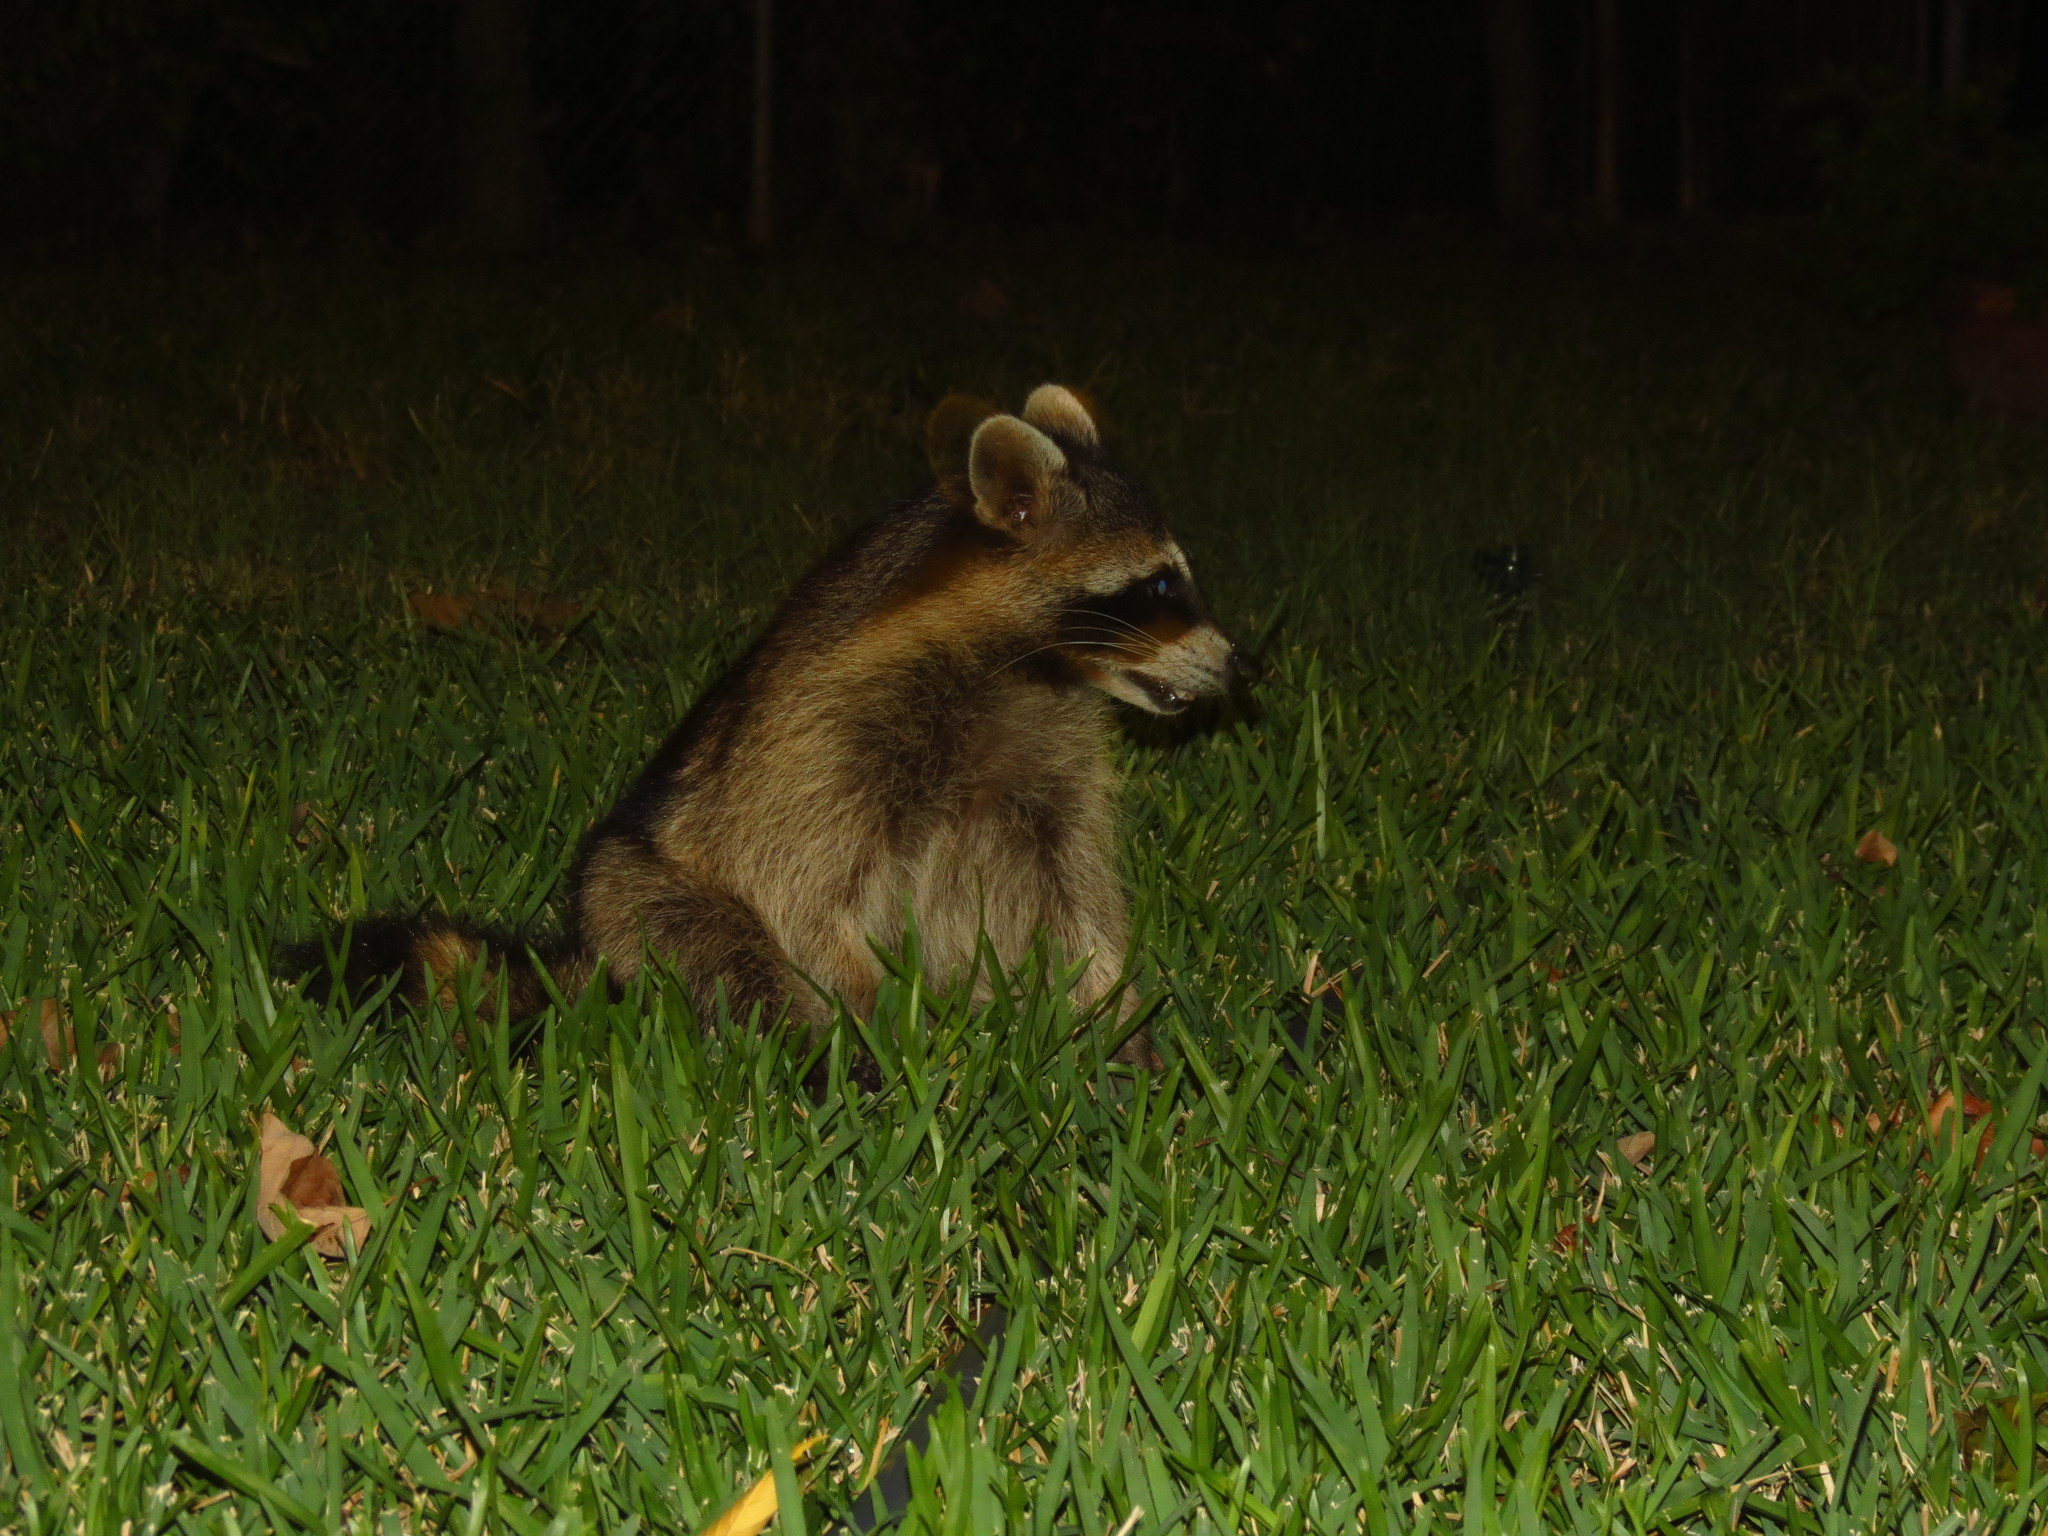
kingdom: Animalia
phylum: Chordata
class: Mammalia
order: Carnivora
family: Procyonidae
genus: Procyon
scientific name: Procyon lotor
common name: Raccoon
